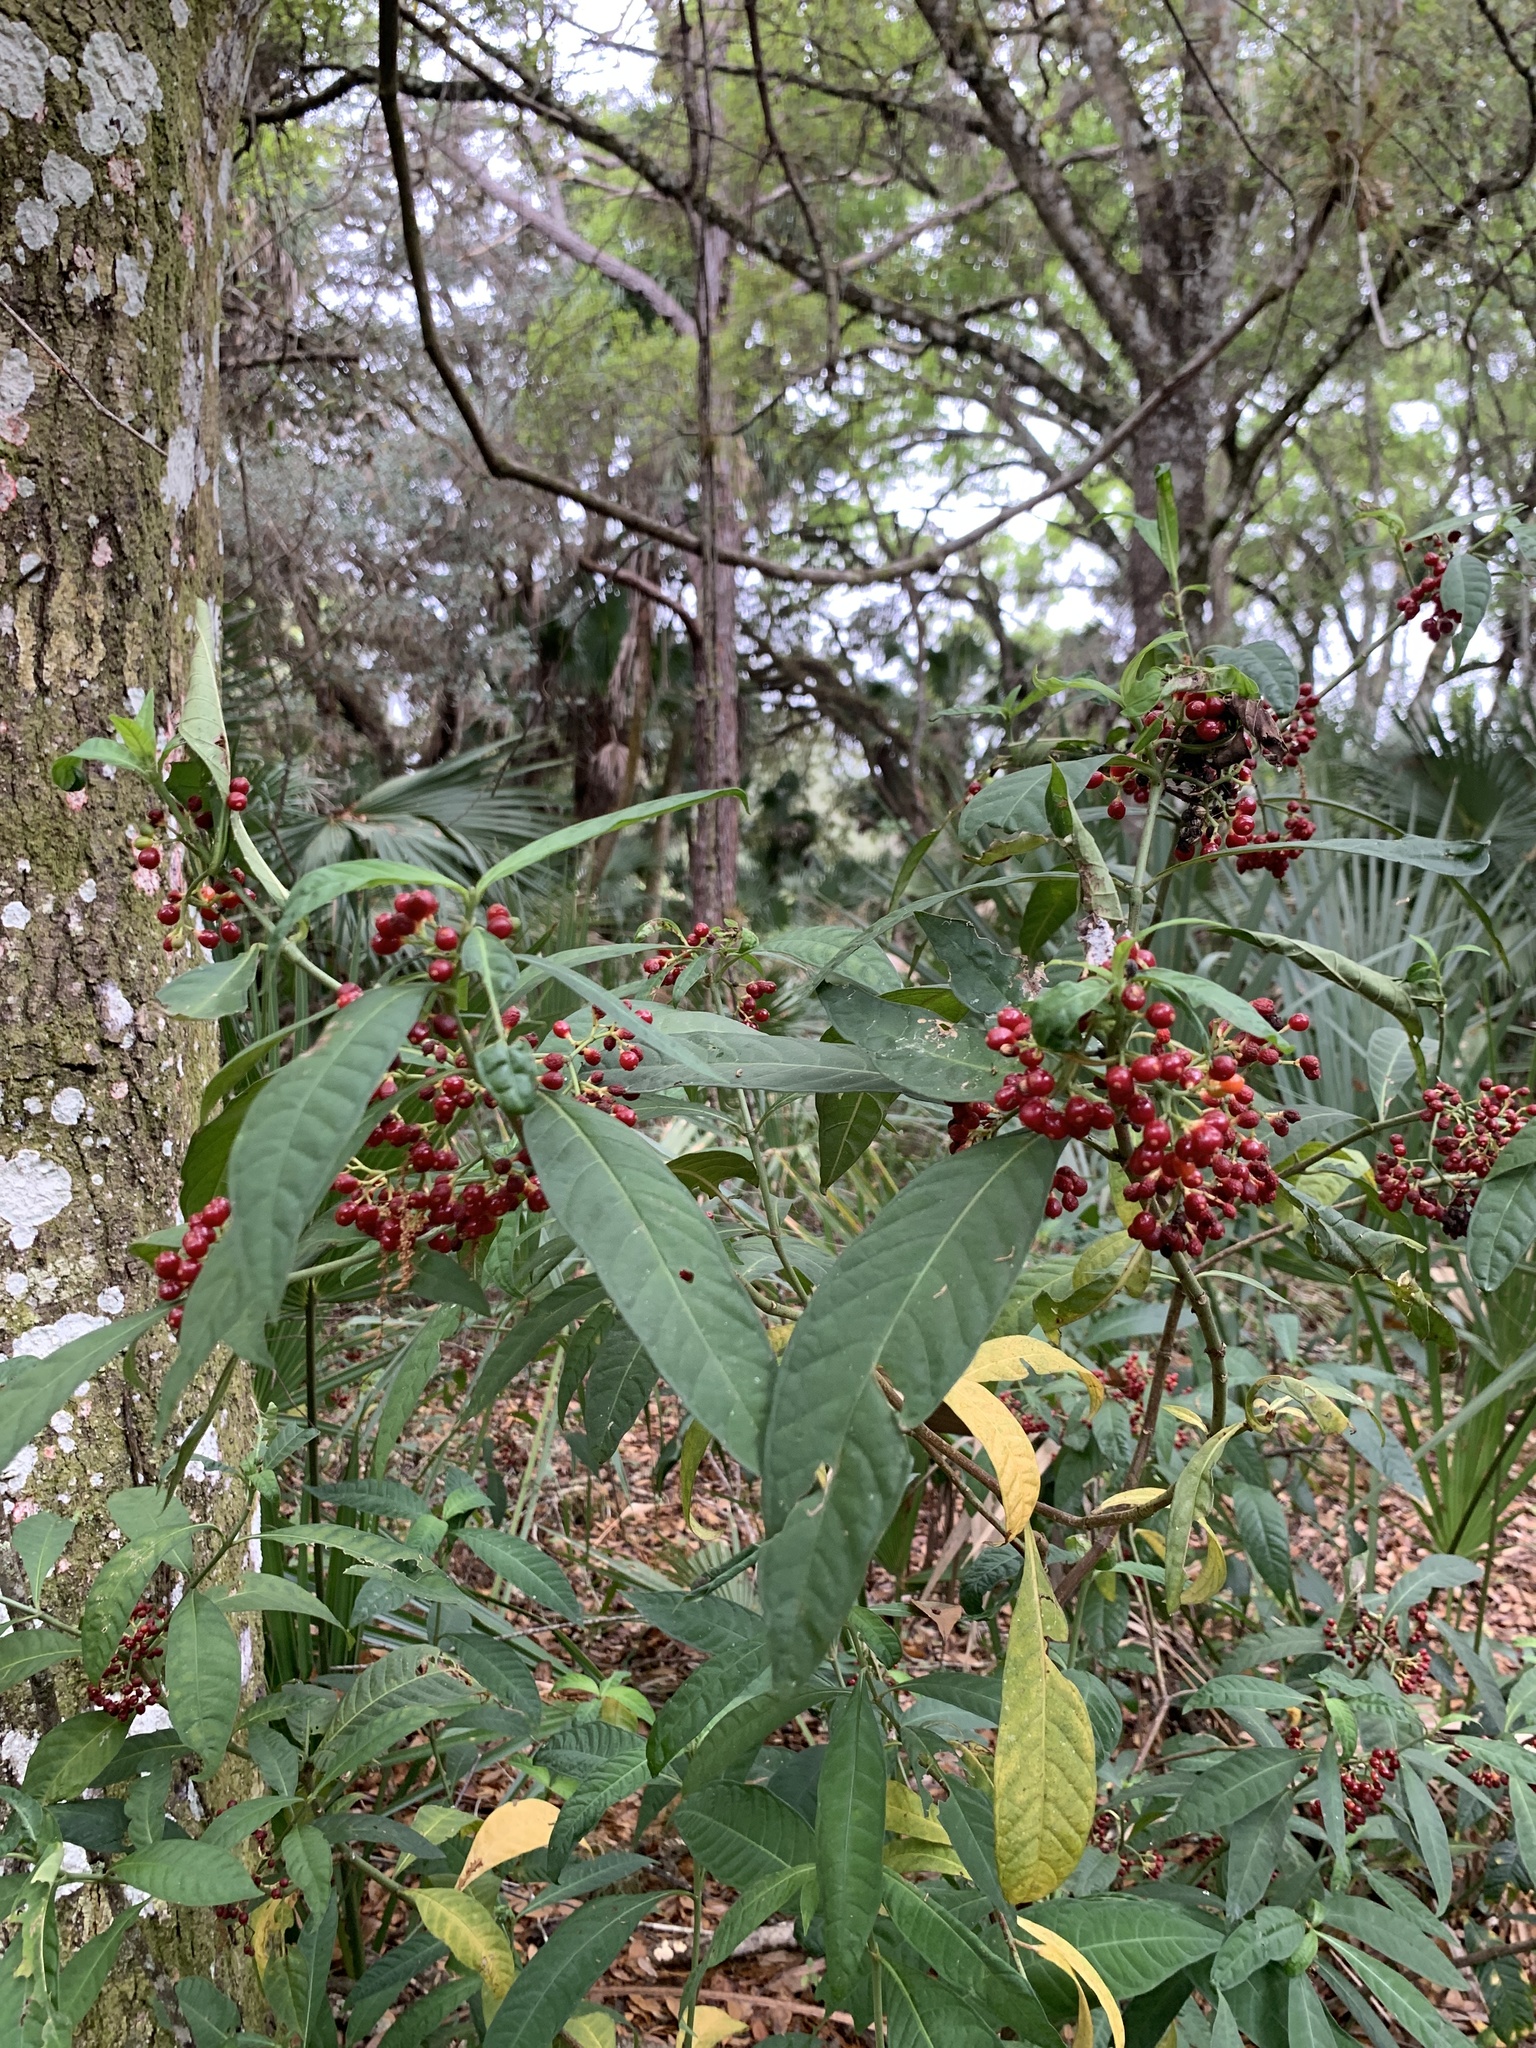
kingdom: Plantae
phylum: Tracheophyta
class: Magnoliopsida
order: Gentianales
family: Rubiaceae
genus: Psychotria
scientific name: Psychotria tenuifolia
